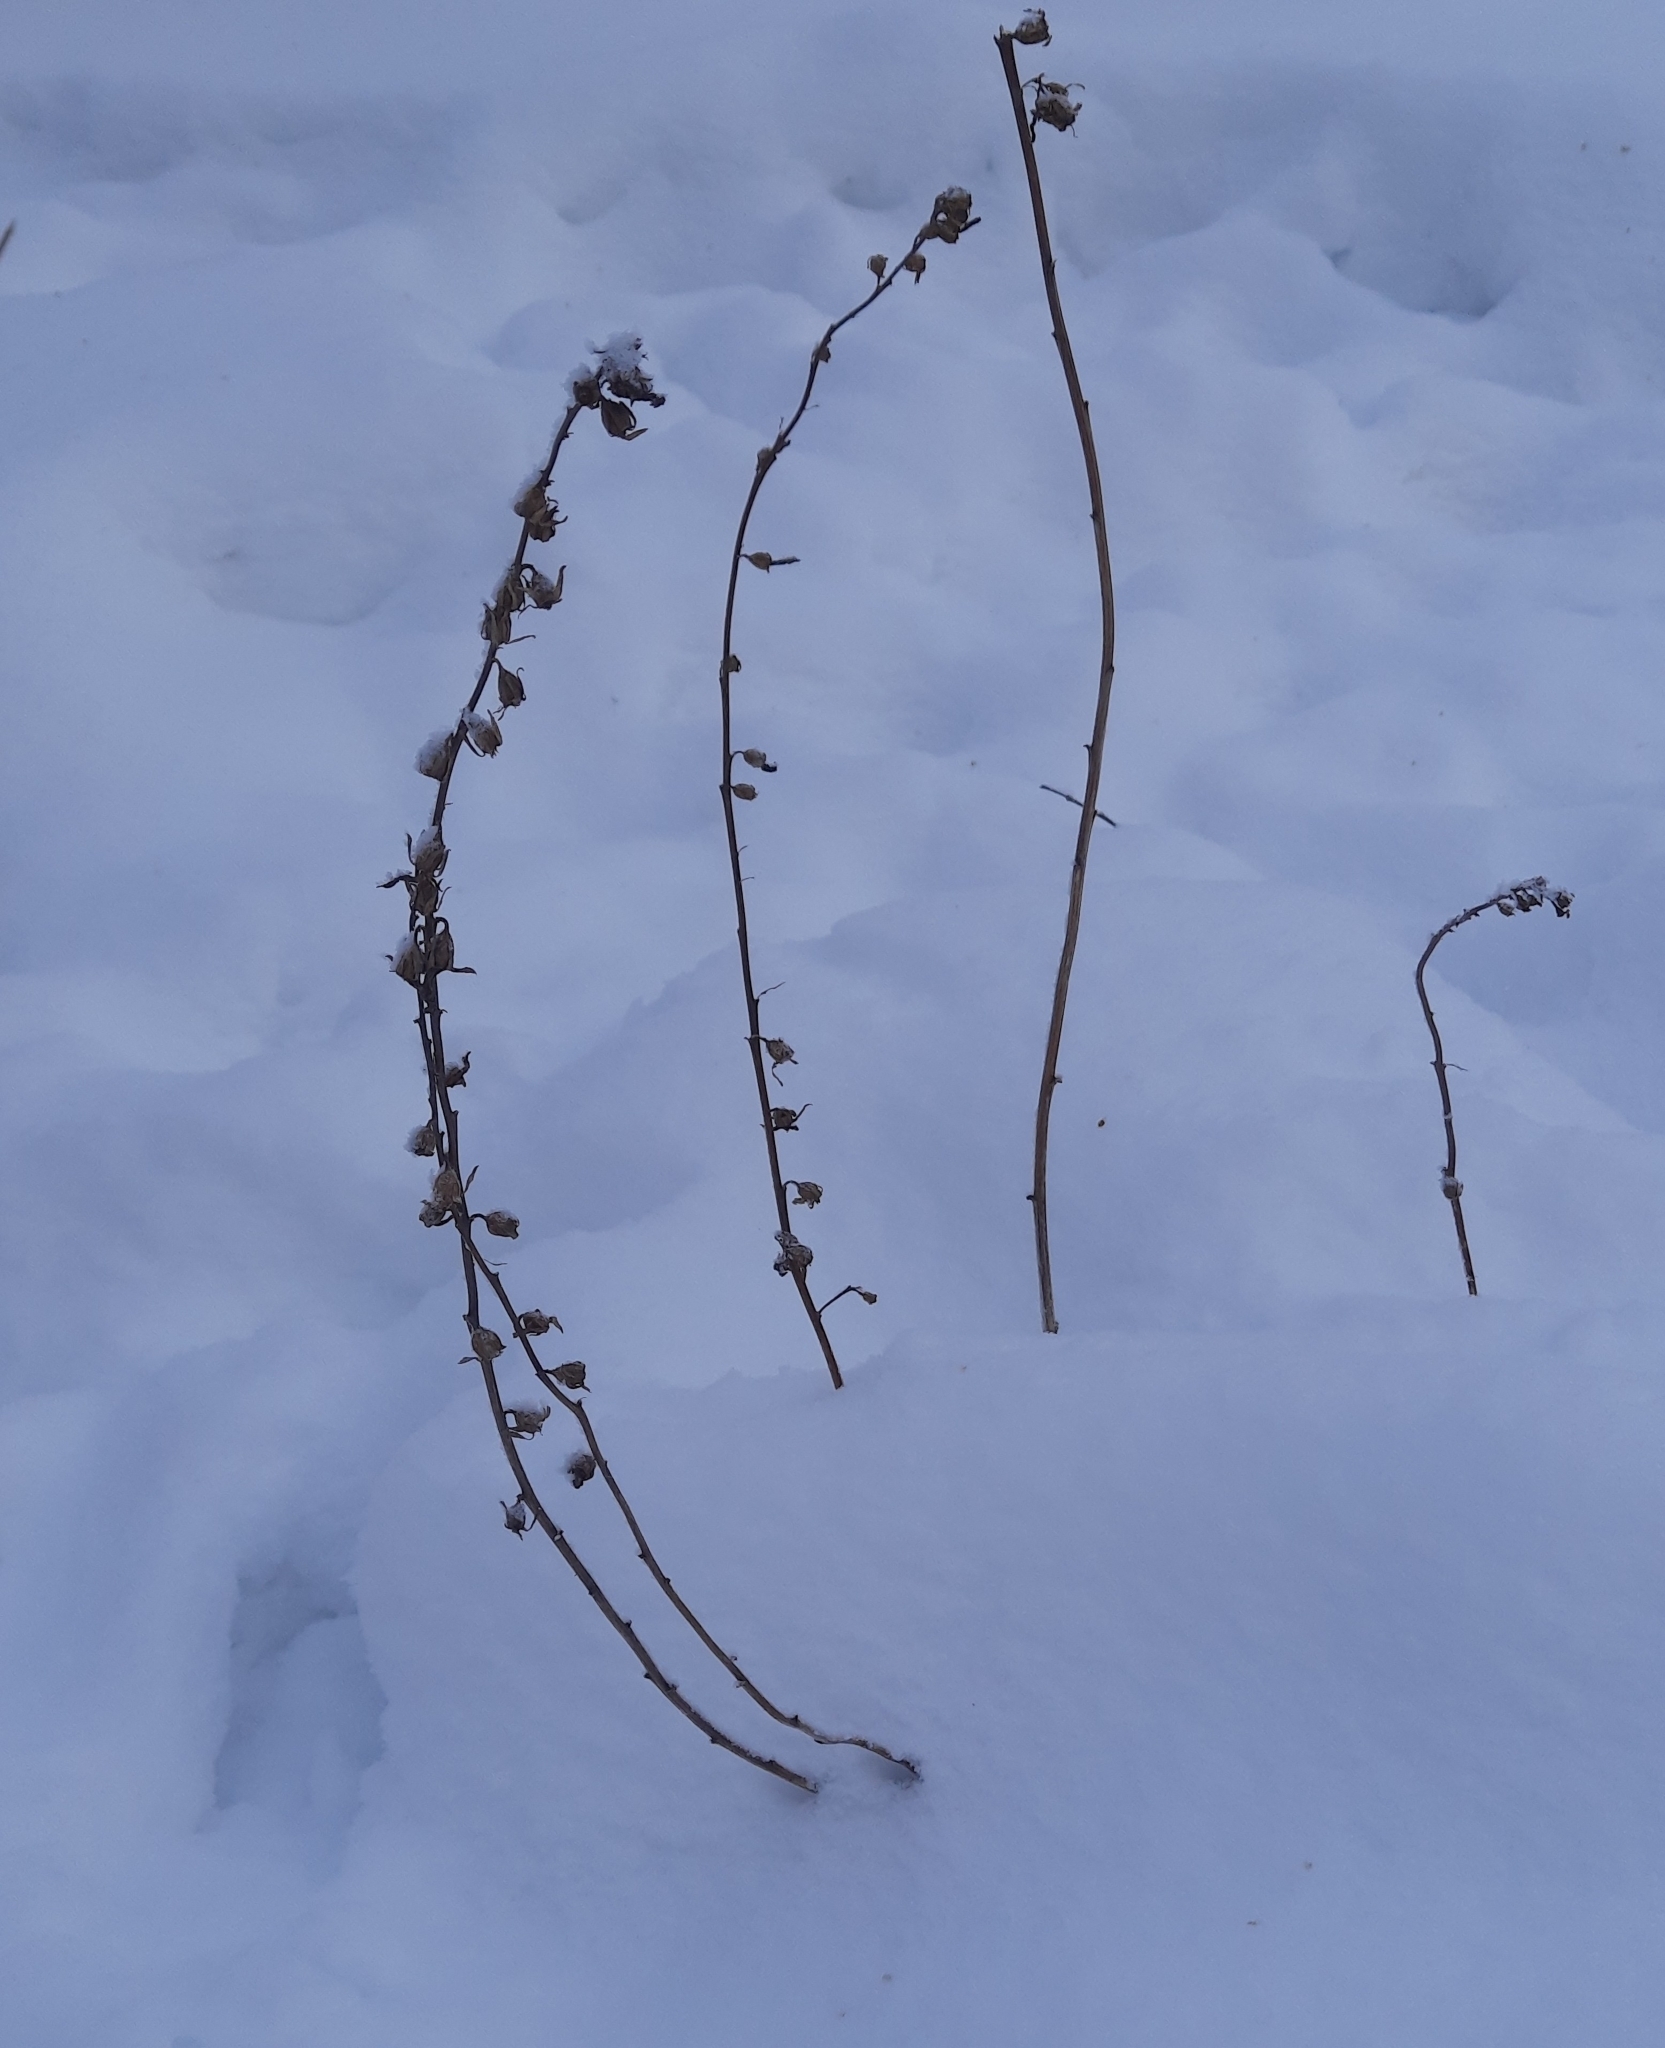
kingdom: Plantae
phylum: Tracheophyta
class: Magnoliopsida
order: Asterales
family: Campanulaceae
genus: Campanula
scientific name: Campanula rapunculoides
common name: Creeping bellflower
